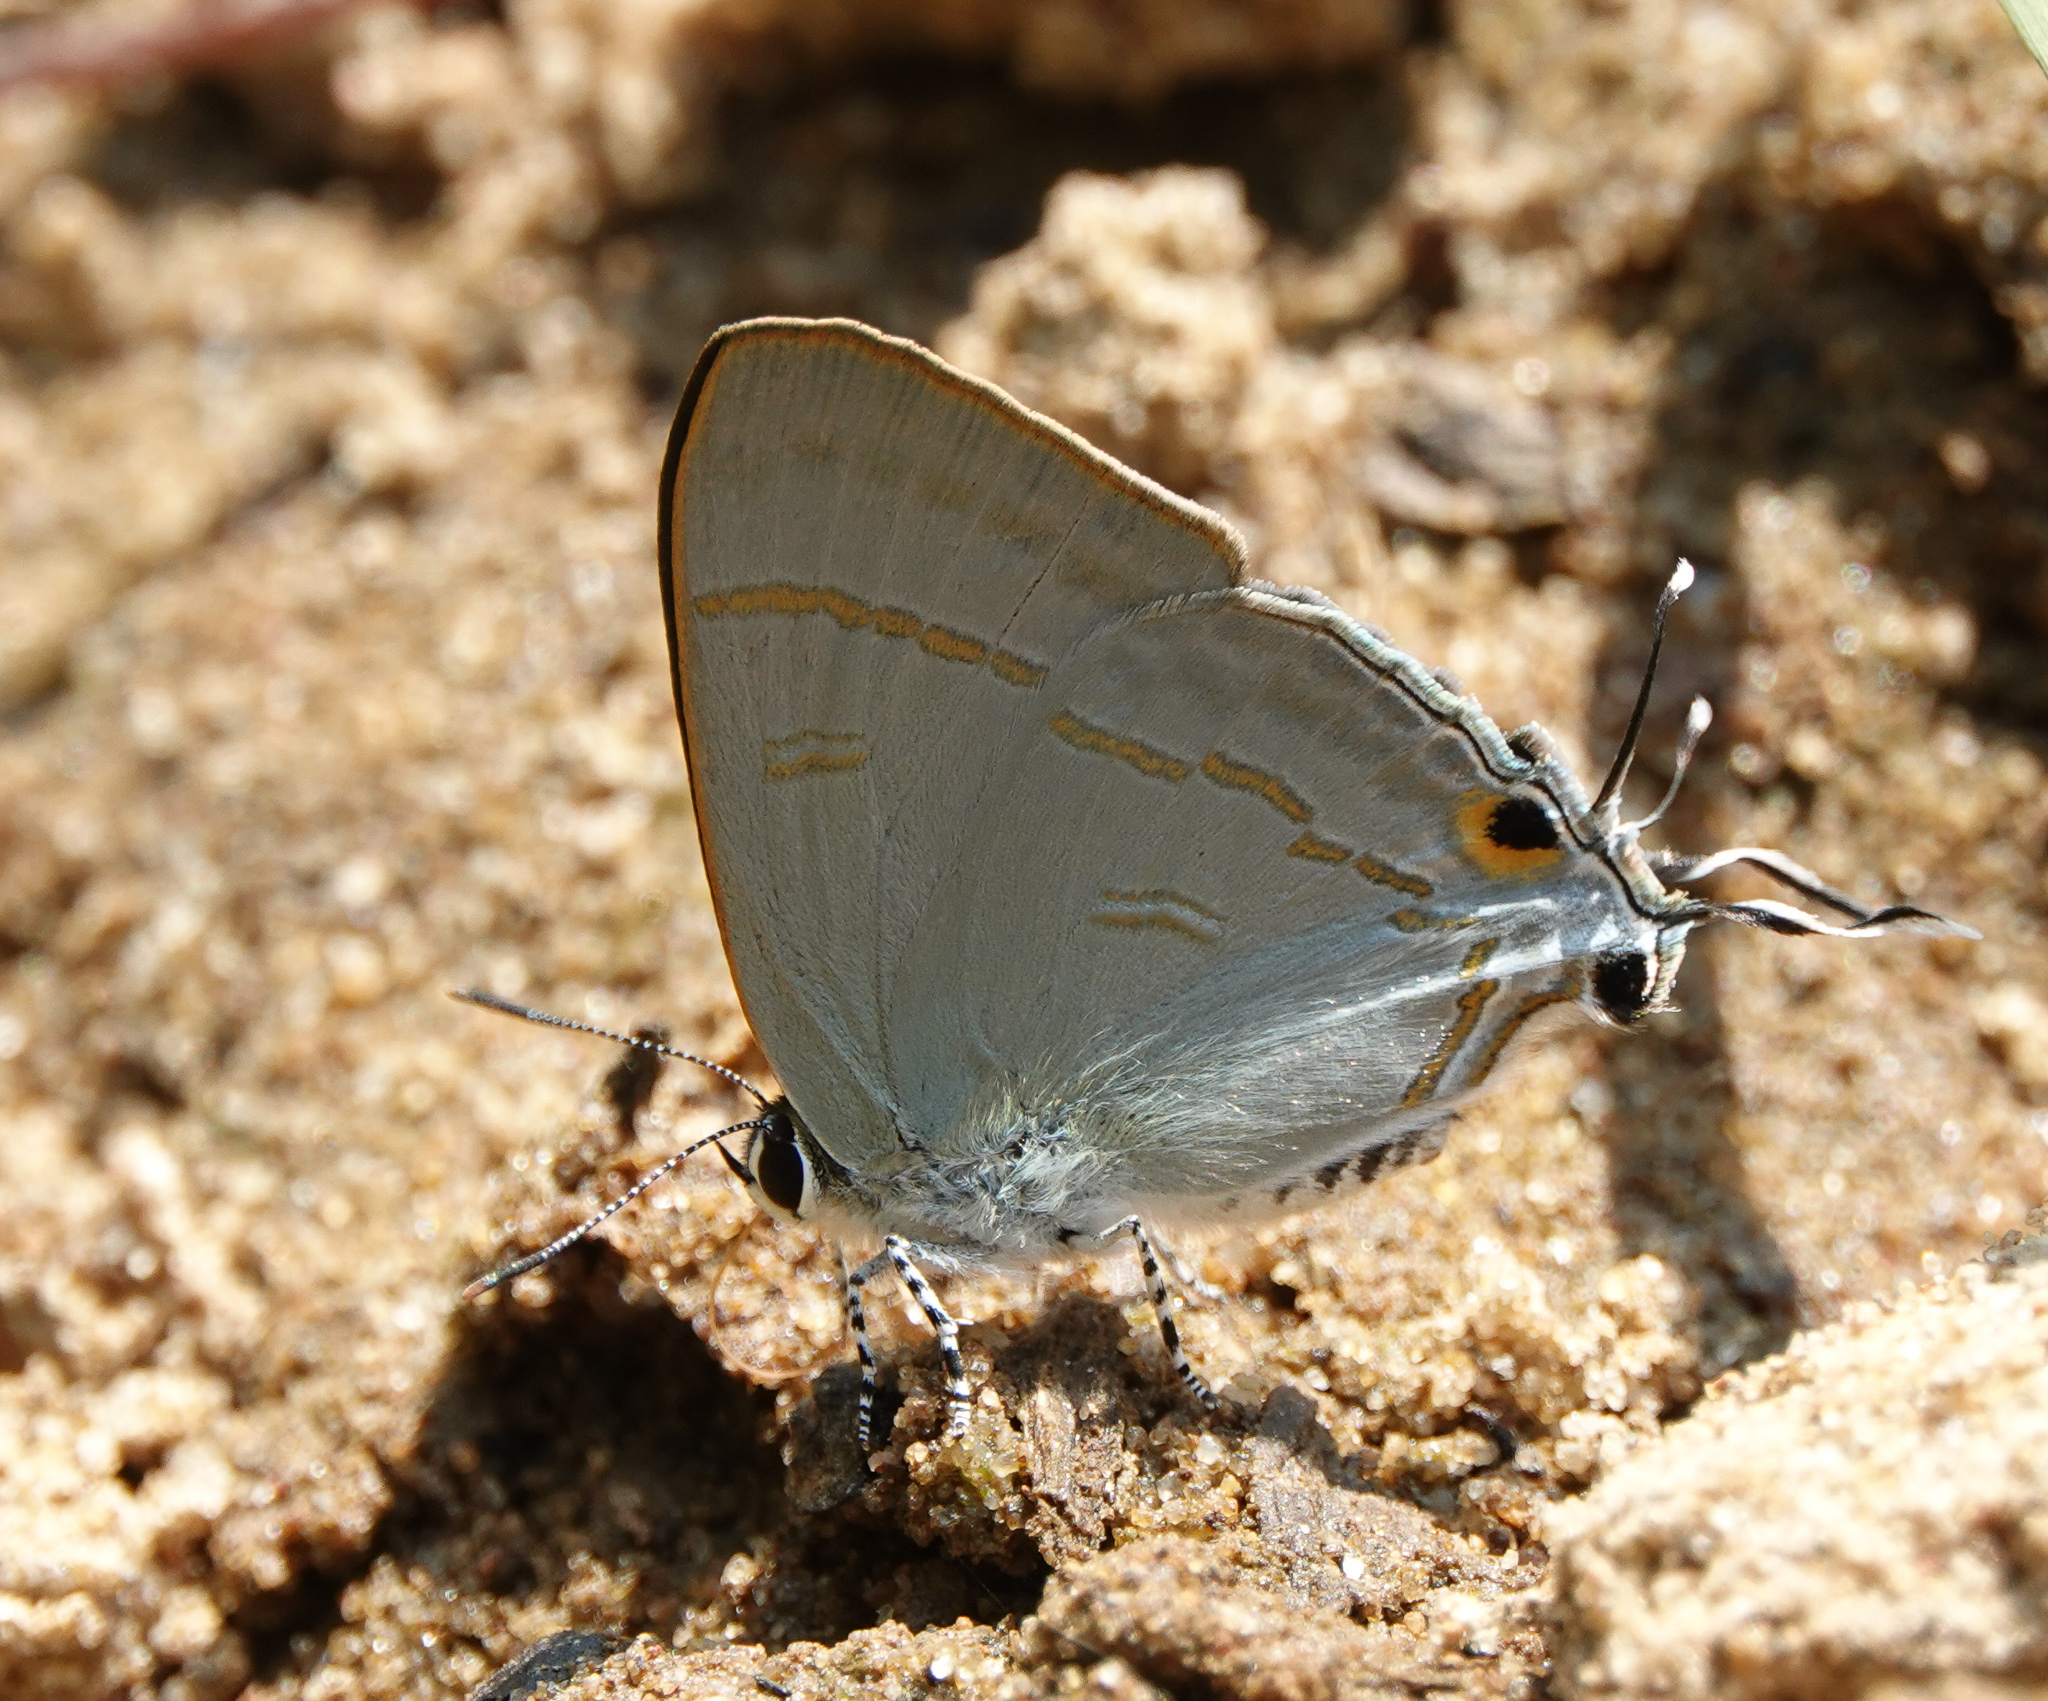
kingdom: Animalia
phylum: Arthropoda
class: Insecta
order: Lepidoptera
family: Lycaenidae
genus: Hypolycaena
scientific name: Hypolycaena erylus
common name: Common tit
